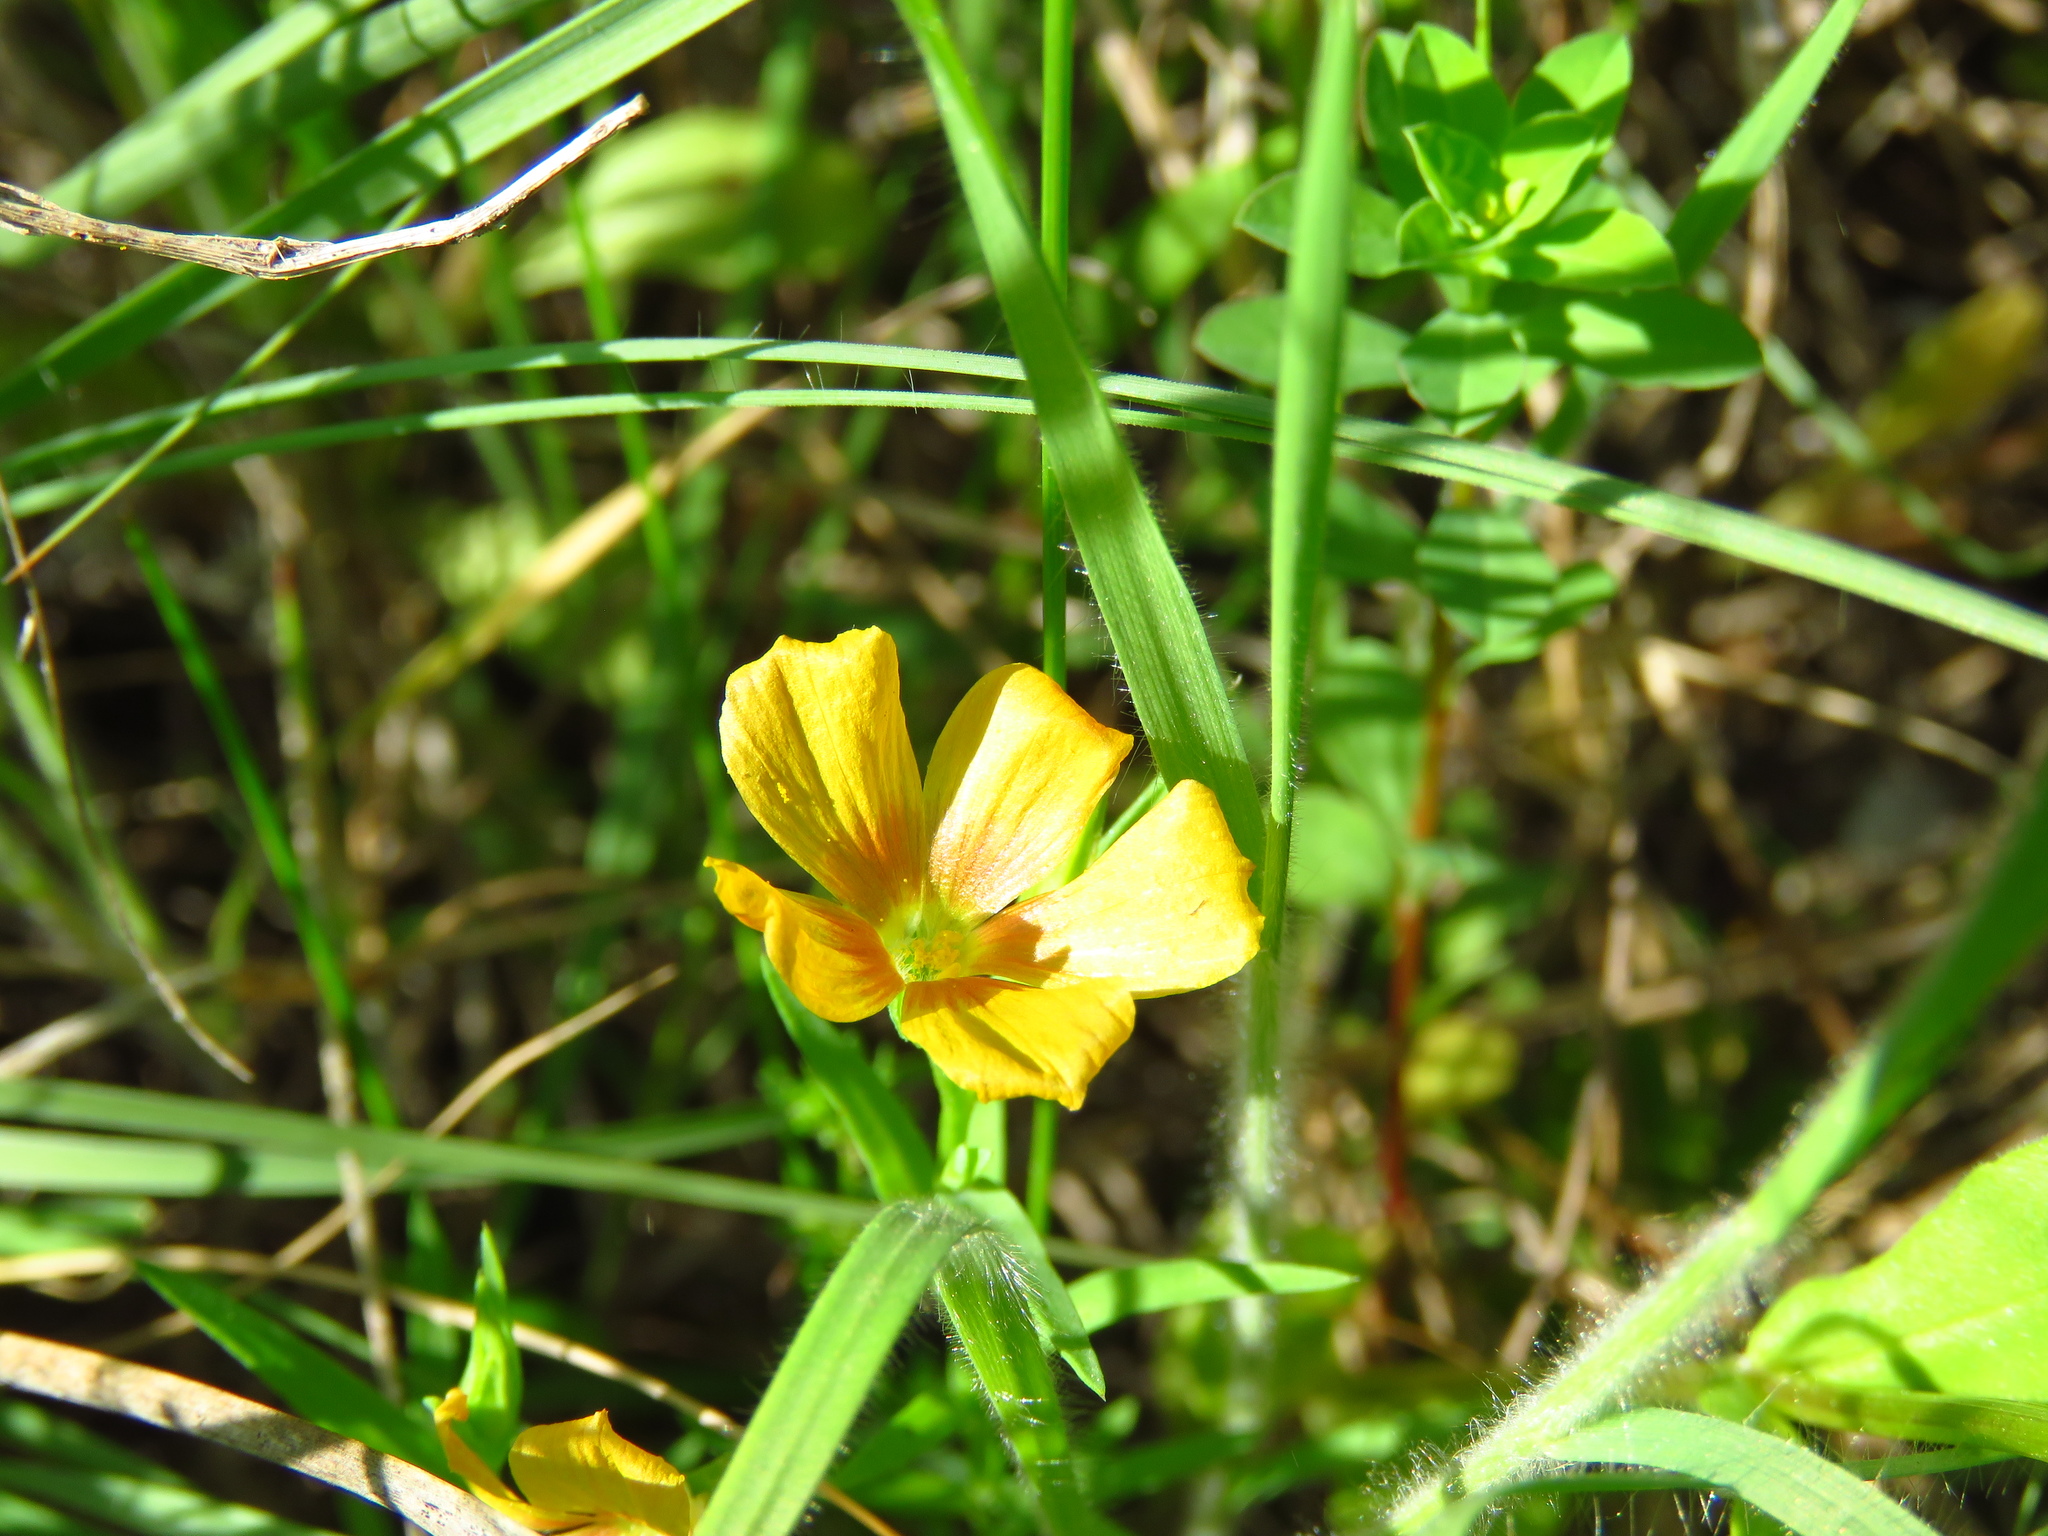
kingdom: Plantae
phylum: Tracheophyta
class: Magnoliopsida
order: Malpighiales
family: Linaceae
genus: Linum
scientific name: Linum rigidum
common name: Stiff-stem flax
